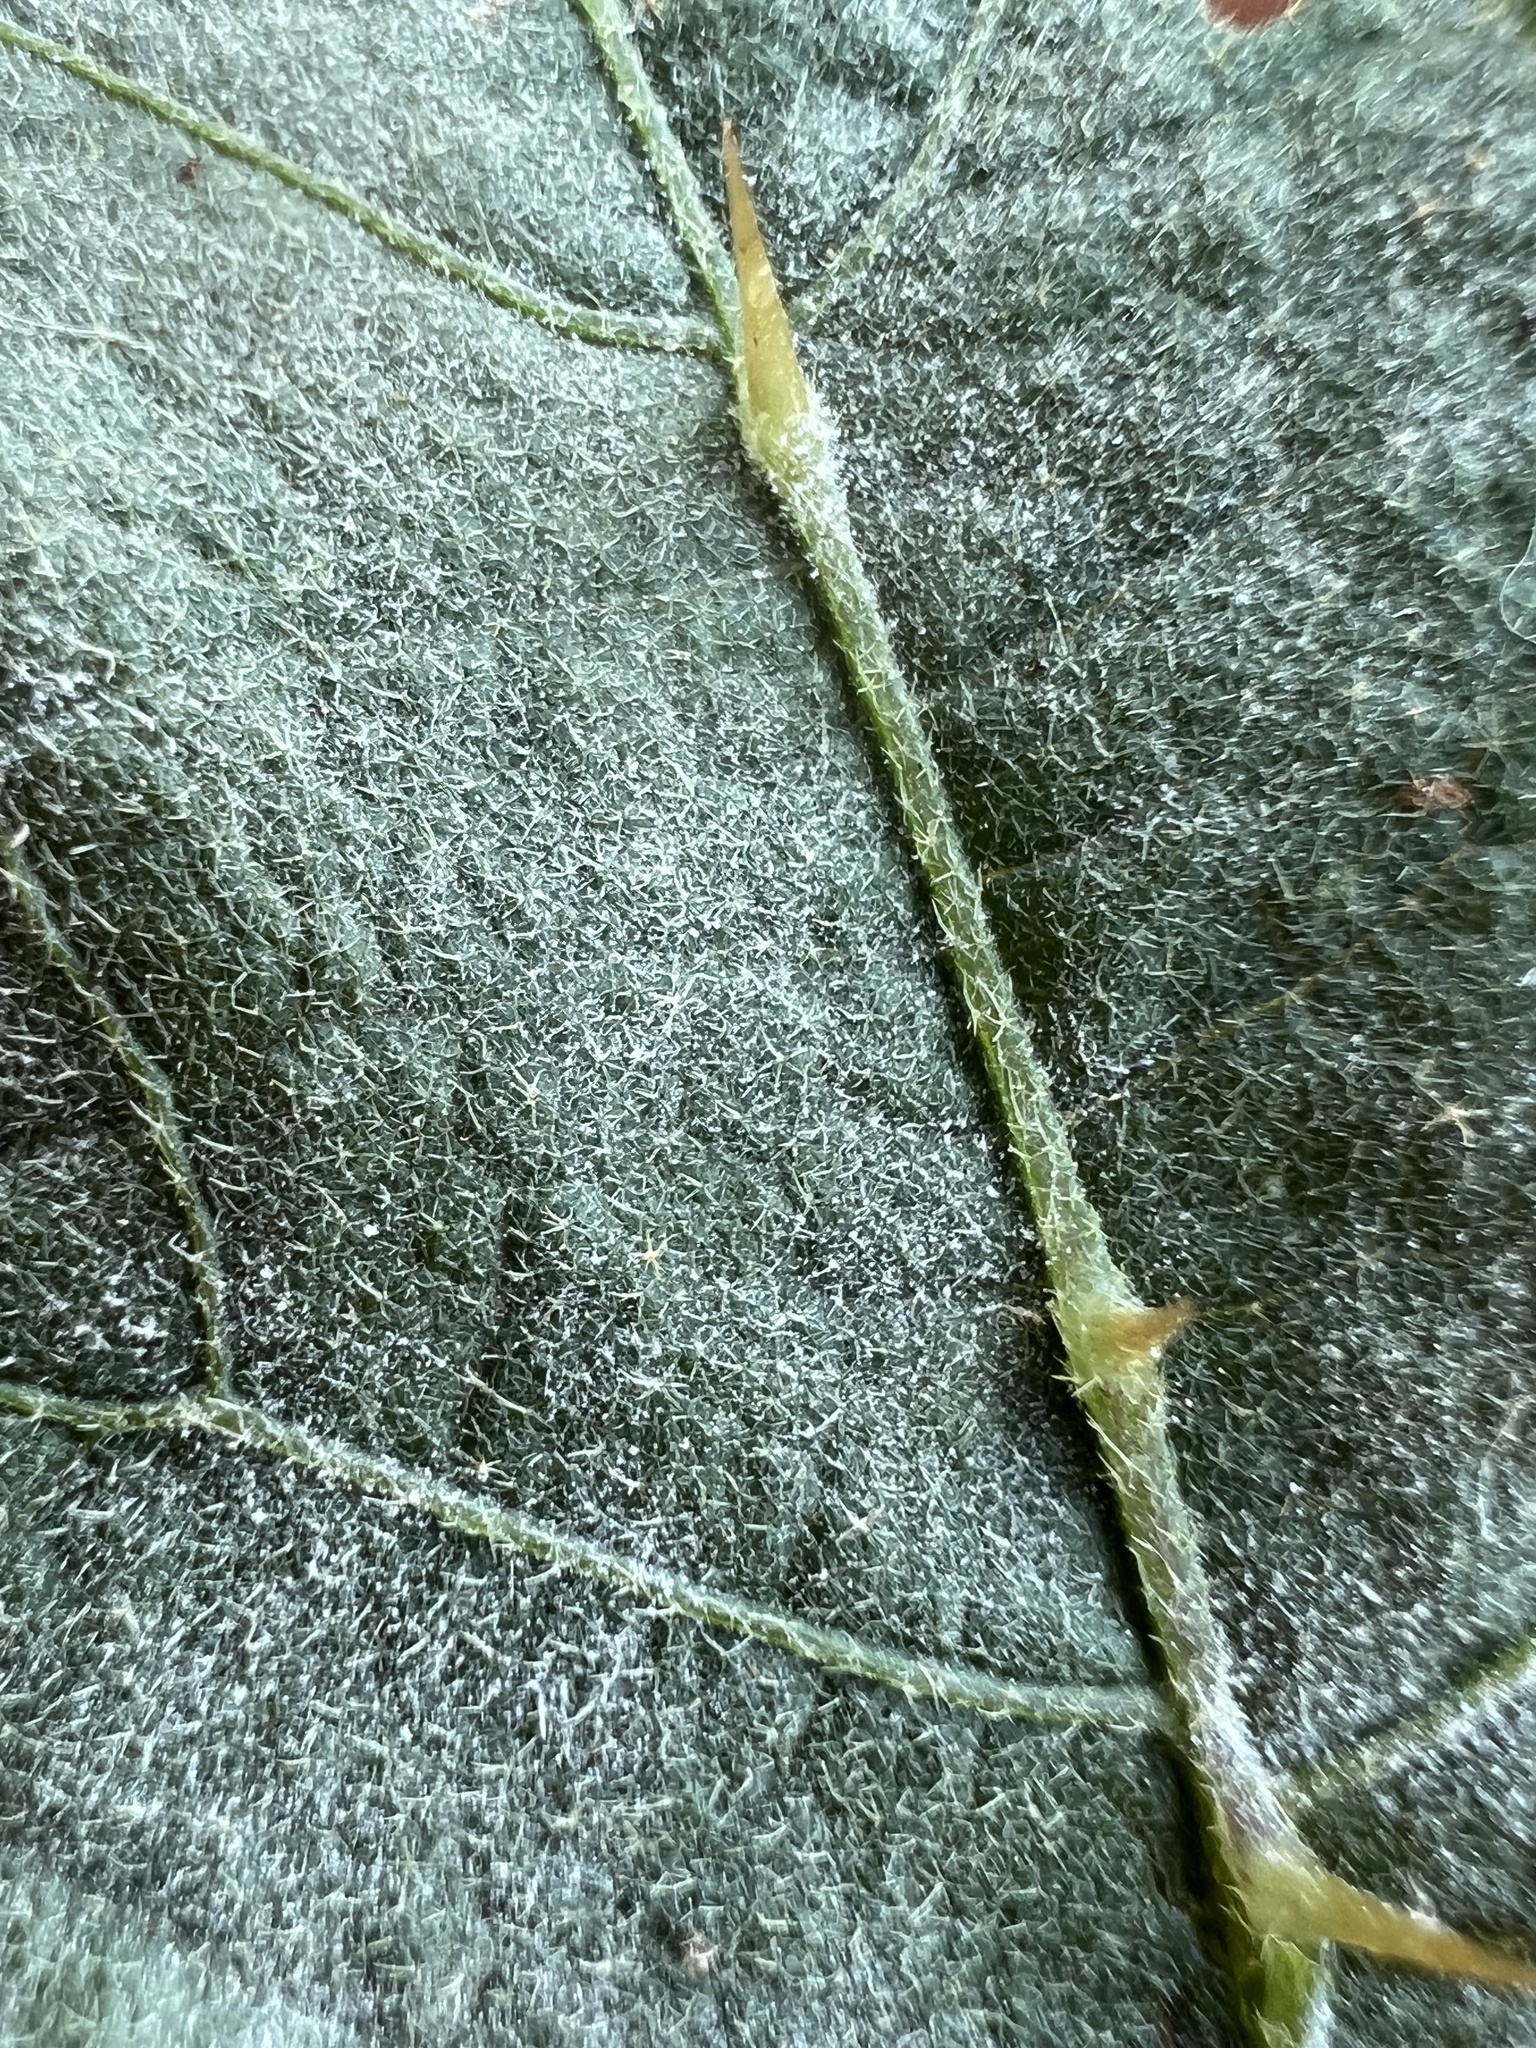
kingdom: Fungi
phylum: Ascomycota
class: Leotiomycetes
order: Helotiales
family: Erysiphaceae
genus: Podosphaera
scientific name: Podosphaera solanacearum
